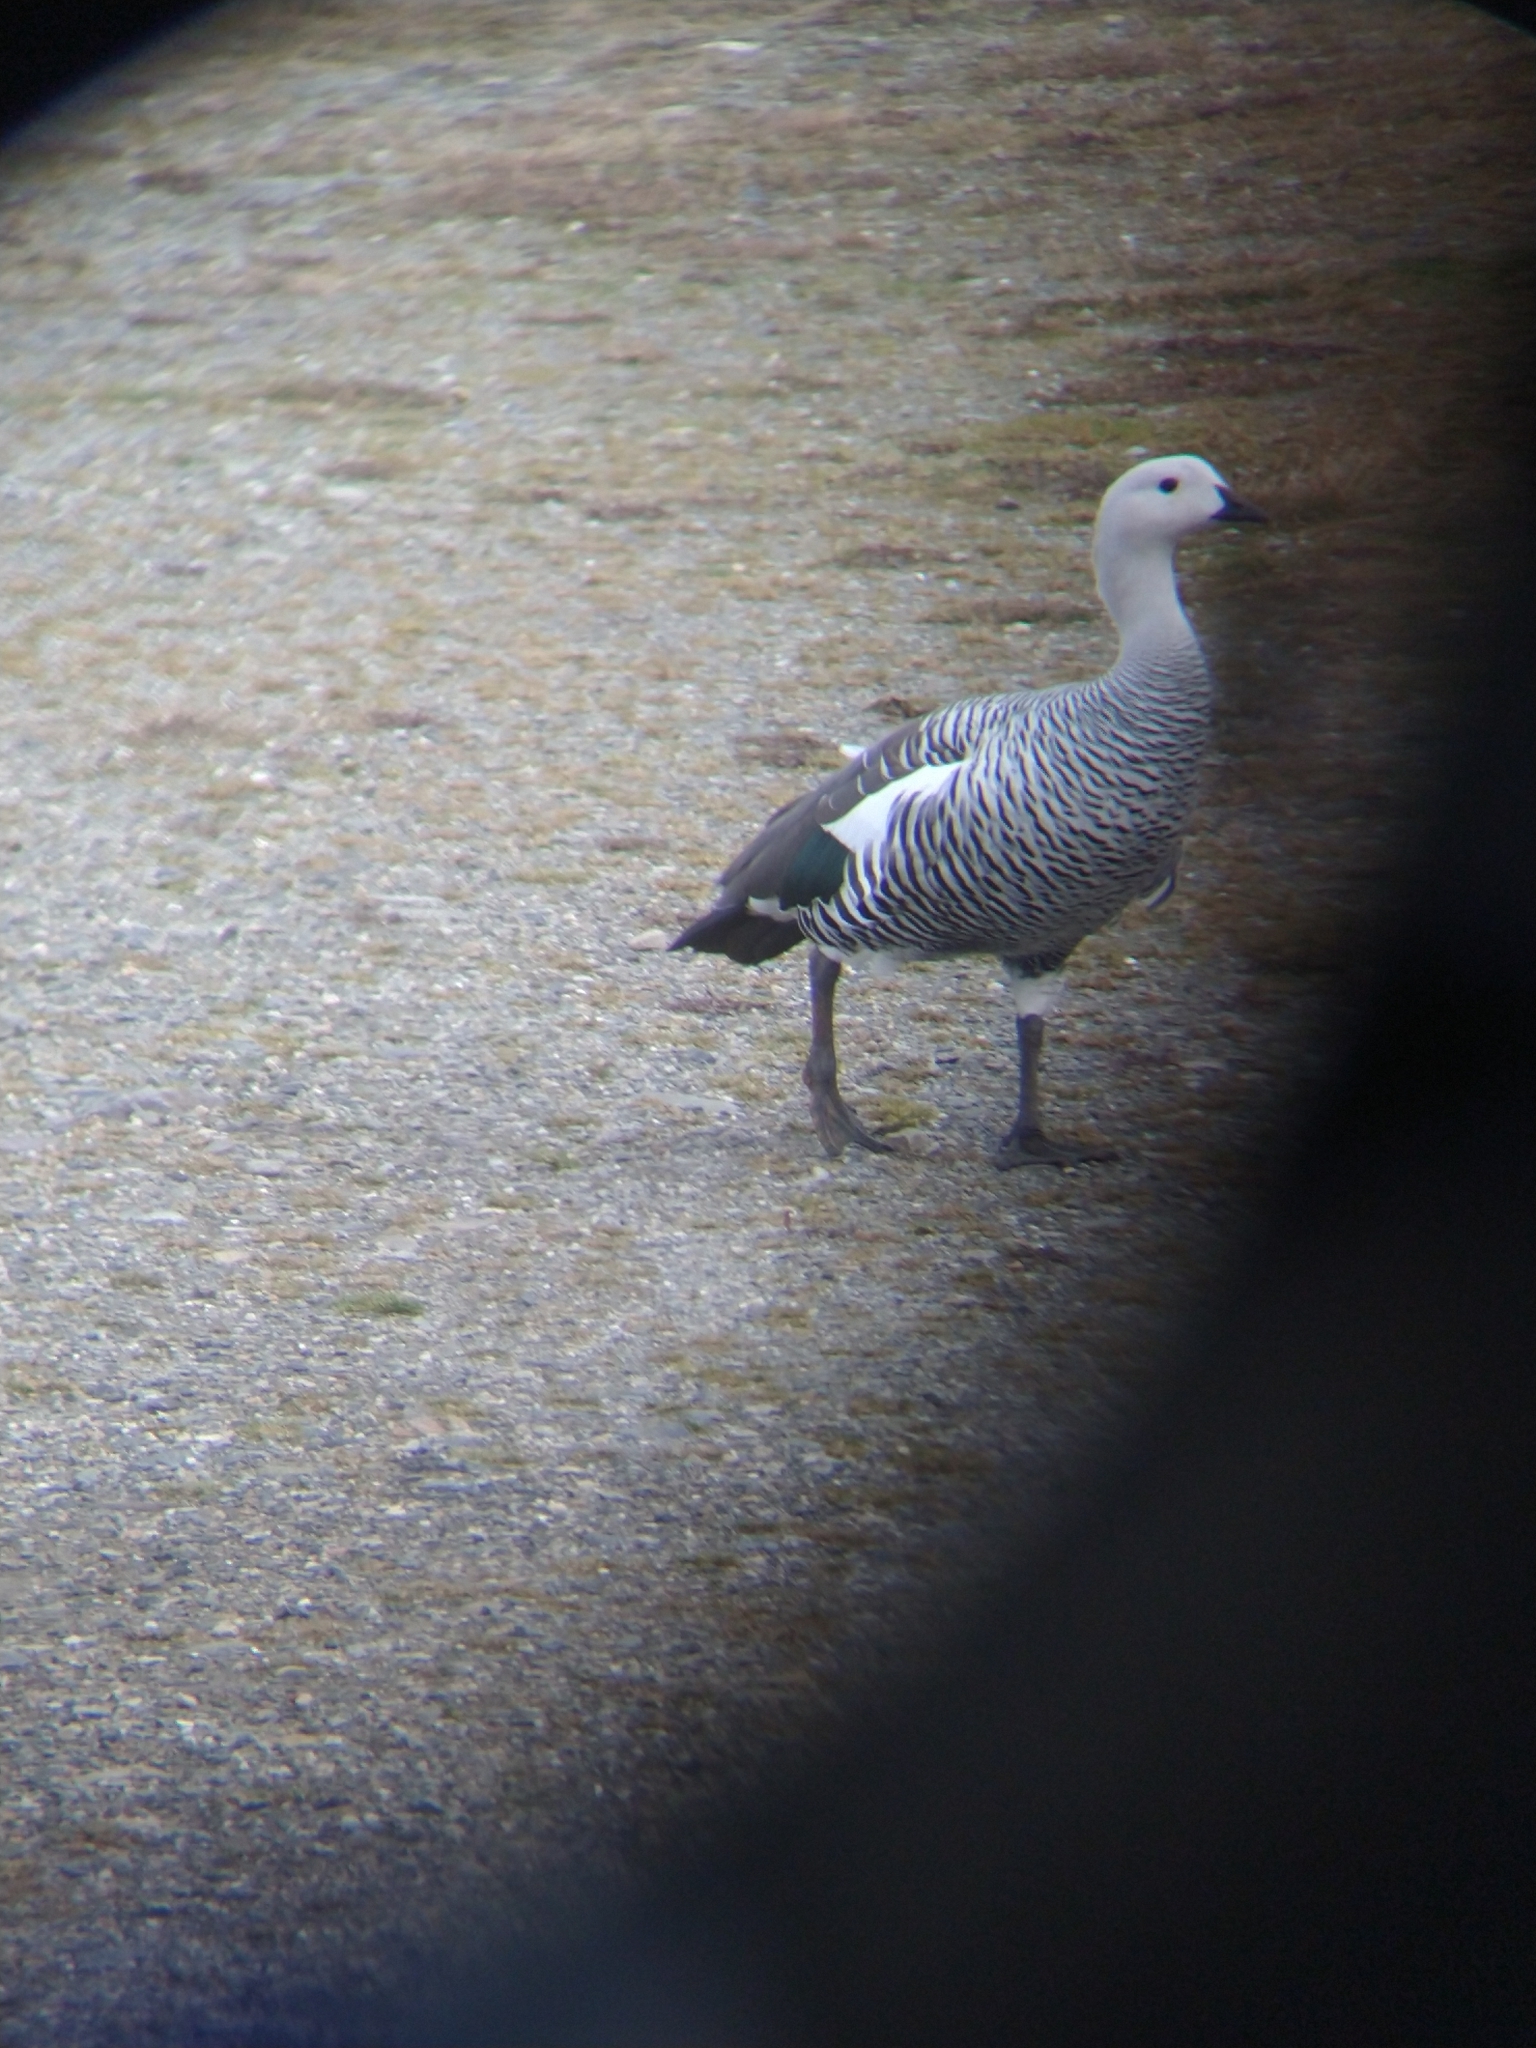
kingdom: Animalia
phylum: Chordata
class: Aves
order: Anseriformes
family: Anatidae
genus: Chloephaga
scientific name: Chloephaga picta
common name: Upland goose
